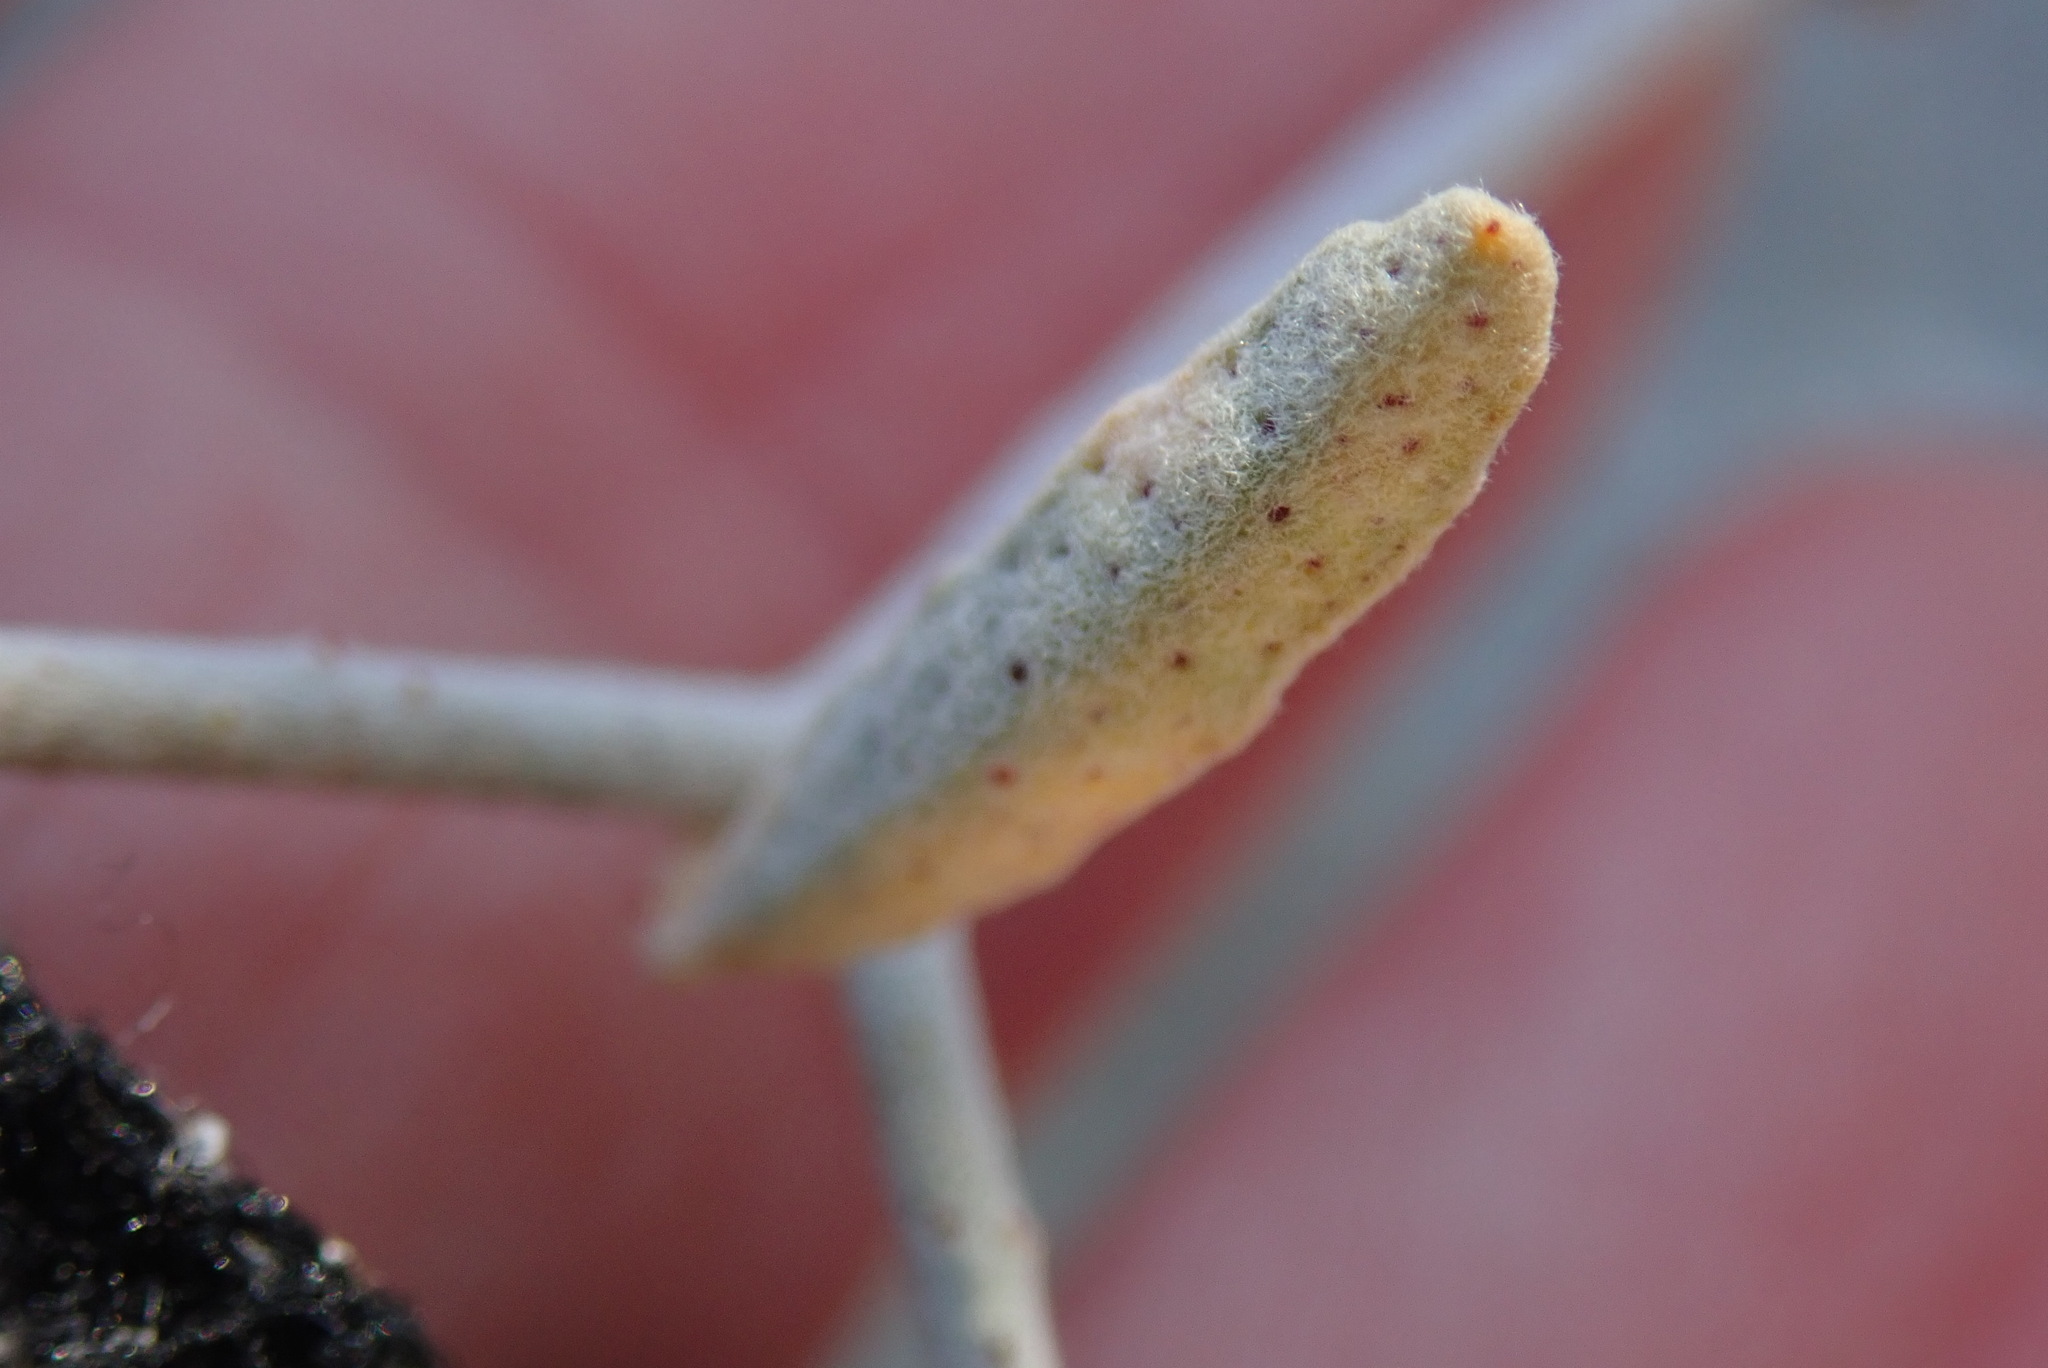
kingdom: Plantae
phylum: Tracheophyta
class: Magnoliopsida
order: Fabales
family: Fabaceae
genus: Psorothamnus
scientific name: Psorothamnus emoryi
